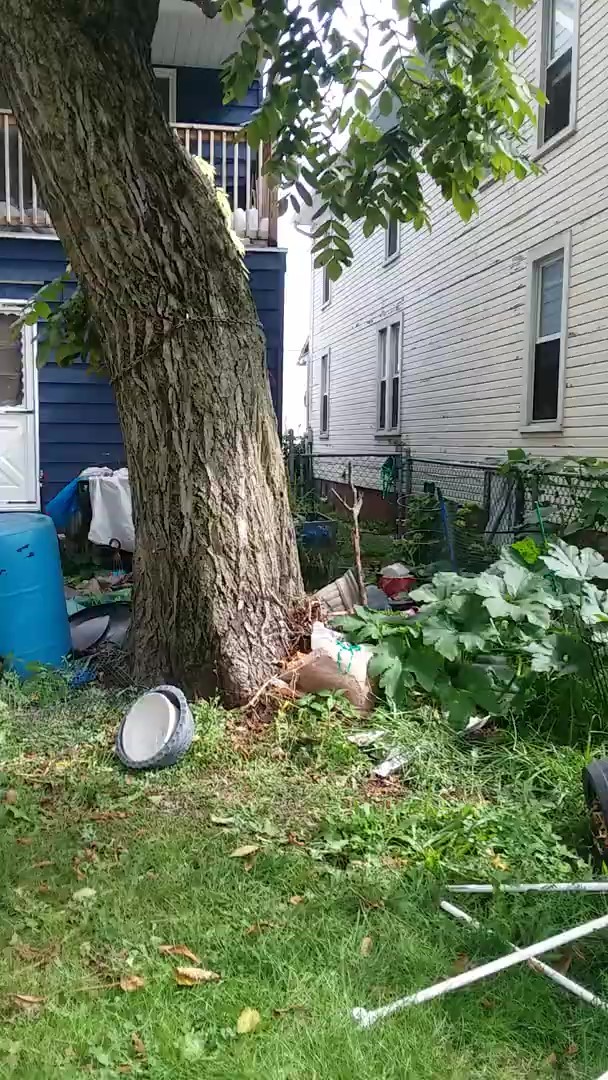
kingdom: Plantae
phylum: Tracheophyta
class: Magnoliopsida
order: Fagales
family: Juglandaceae
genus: Juglans
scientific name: Juglans cinerea
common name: Butternut
